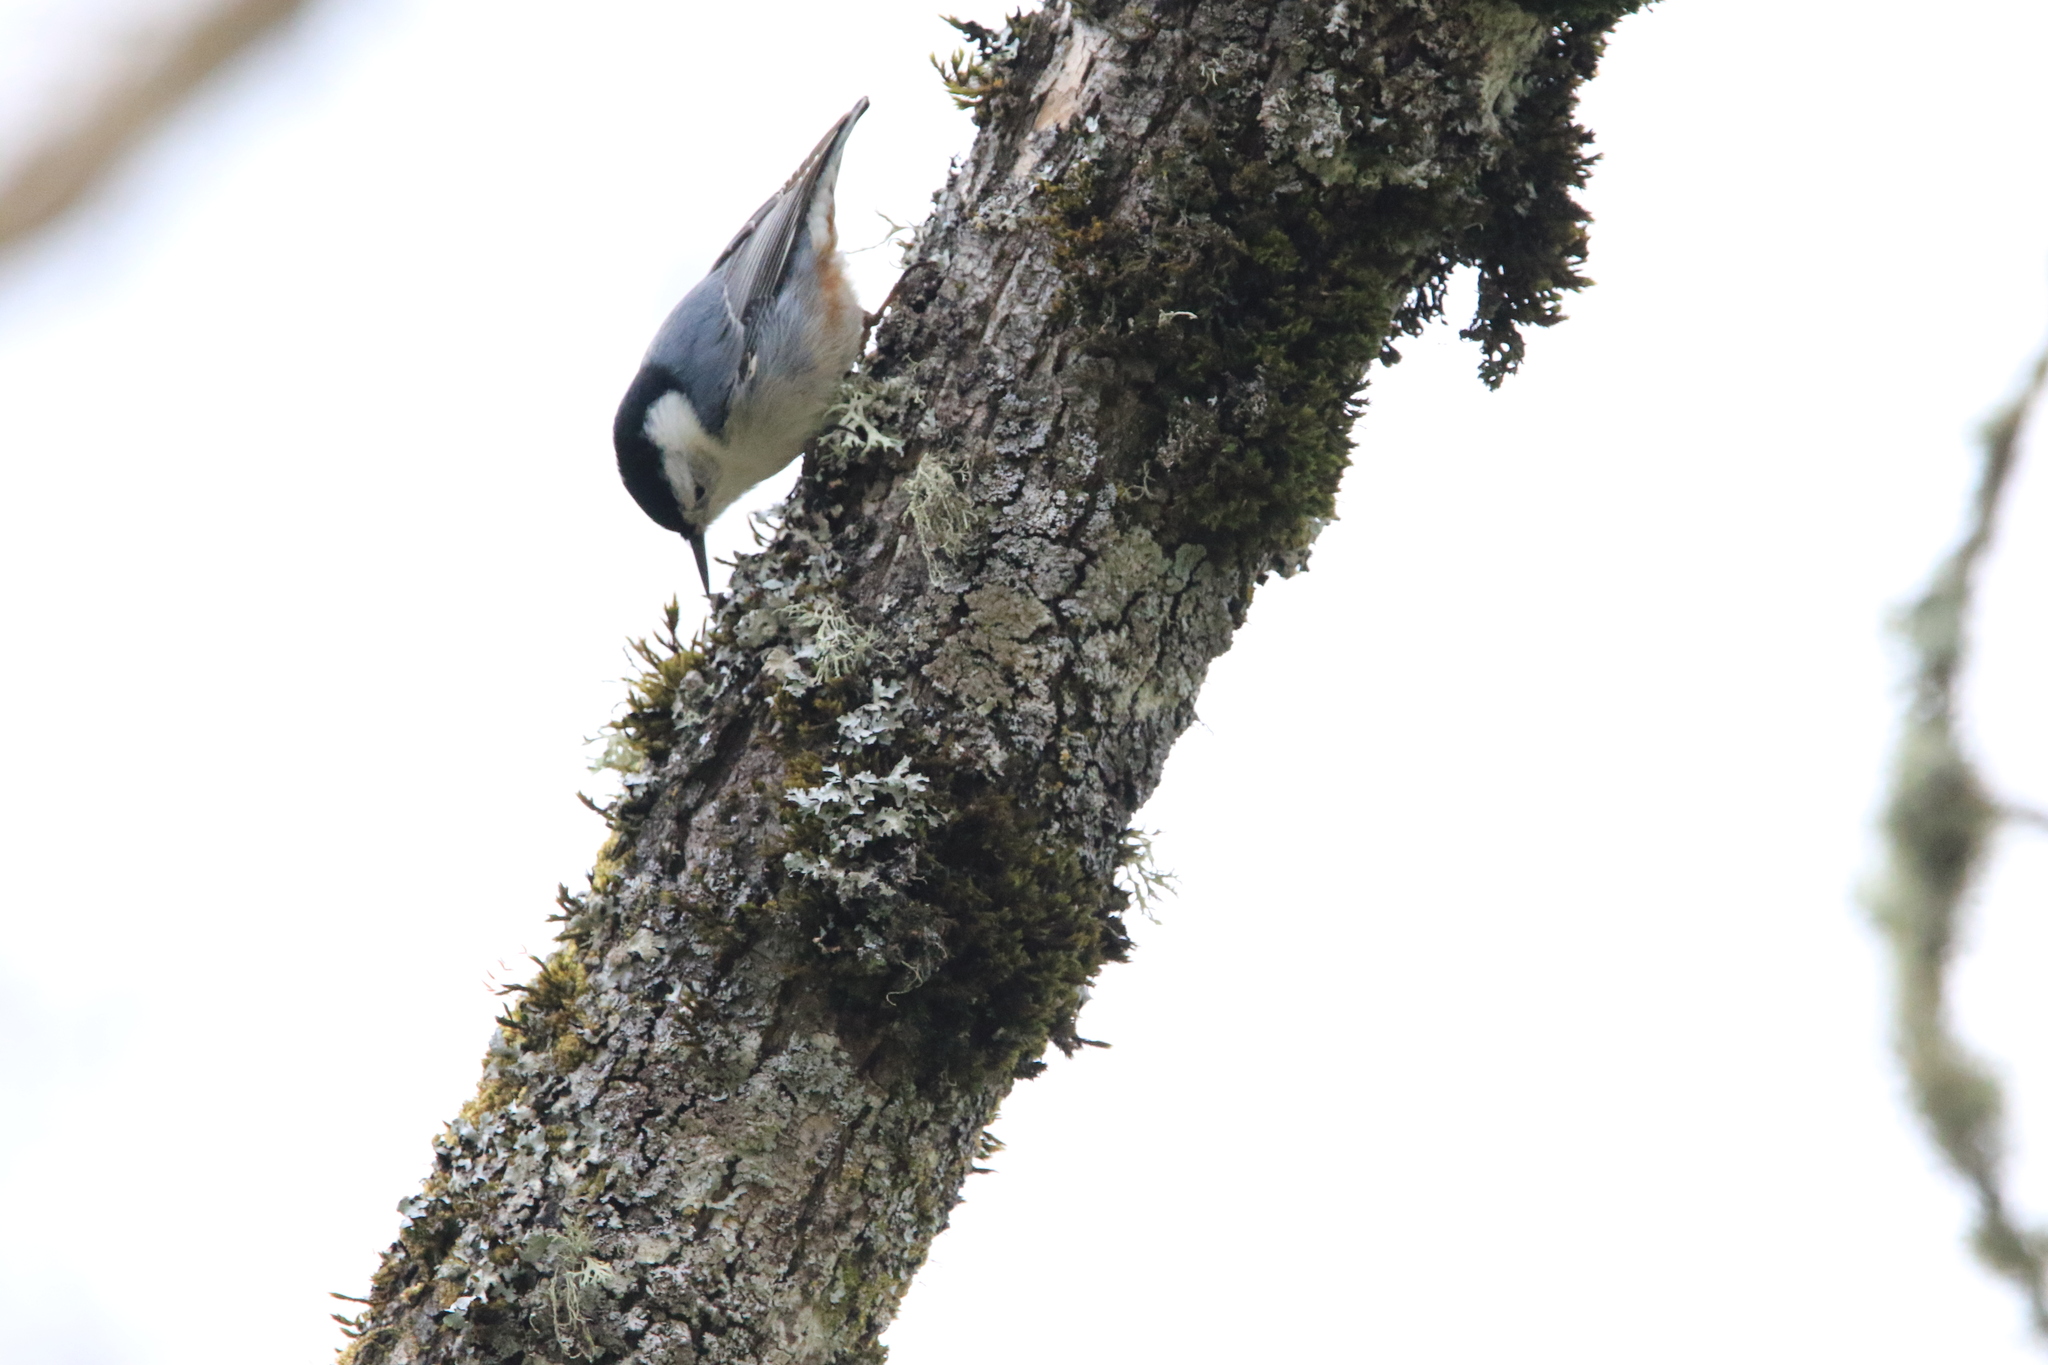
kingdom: Animalia
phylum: Chordata
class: Aves
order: Passeriformes
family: Sittidae
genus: Sitta
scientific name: Sitta carolinensis
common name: White-breasted nuthatch
